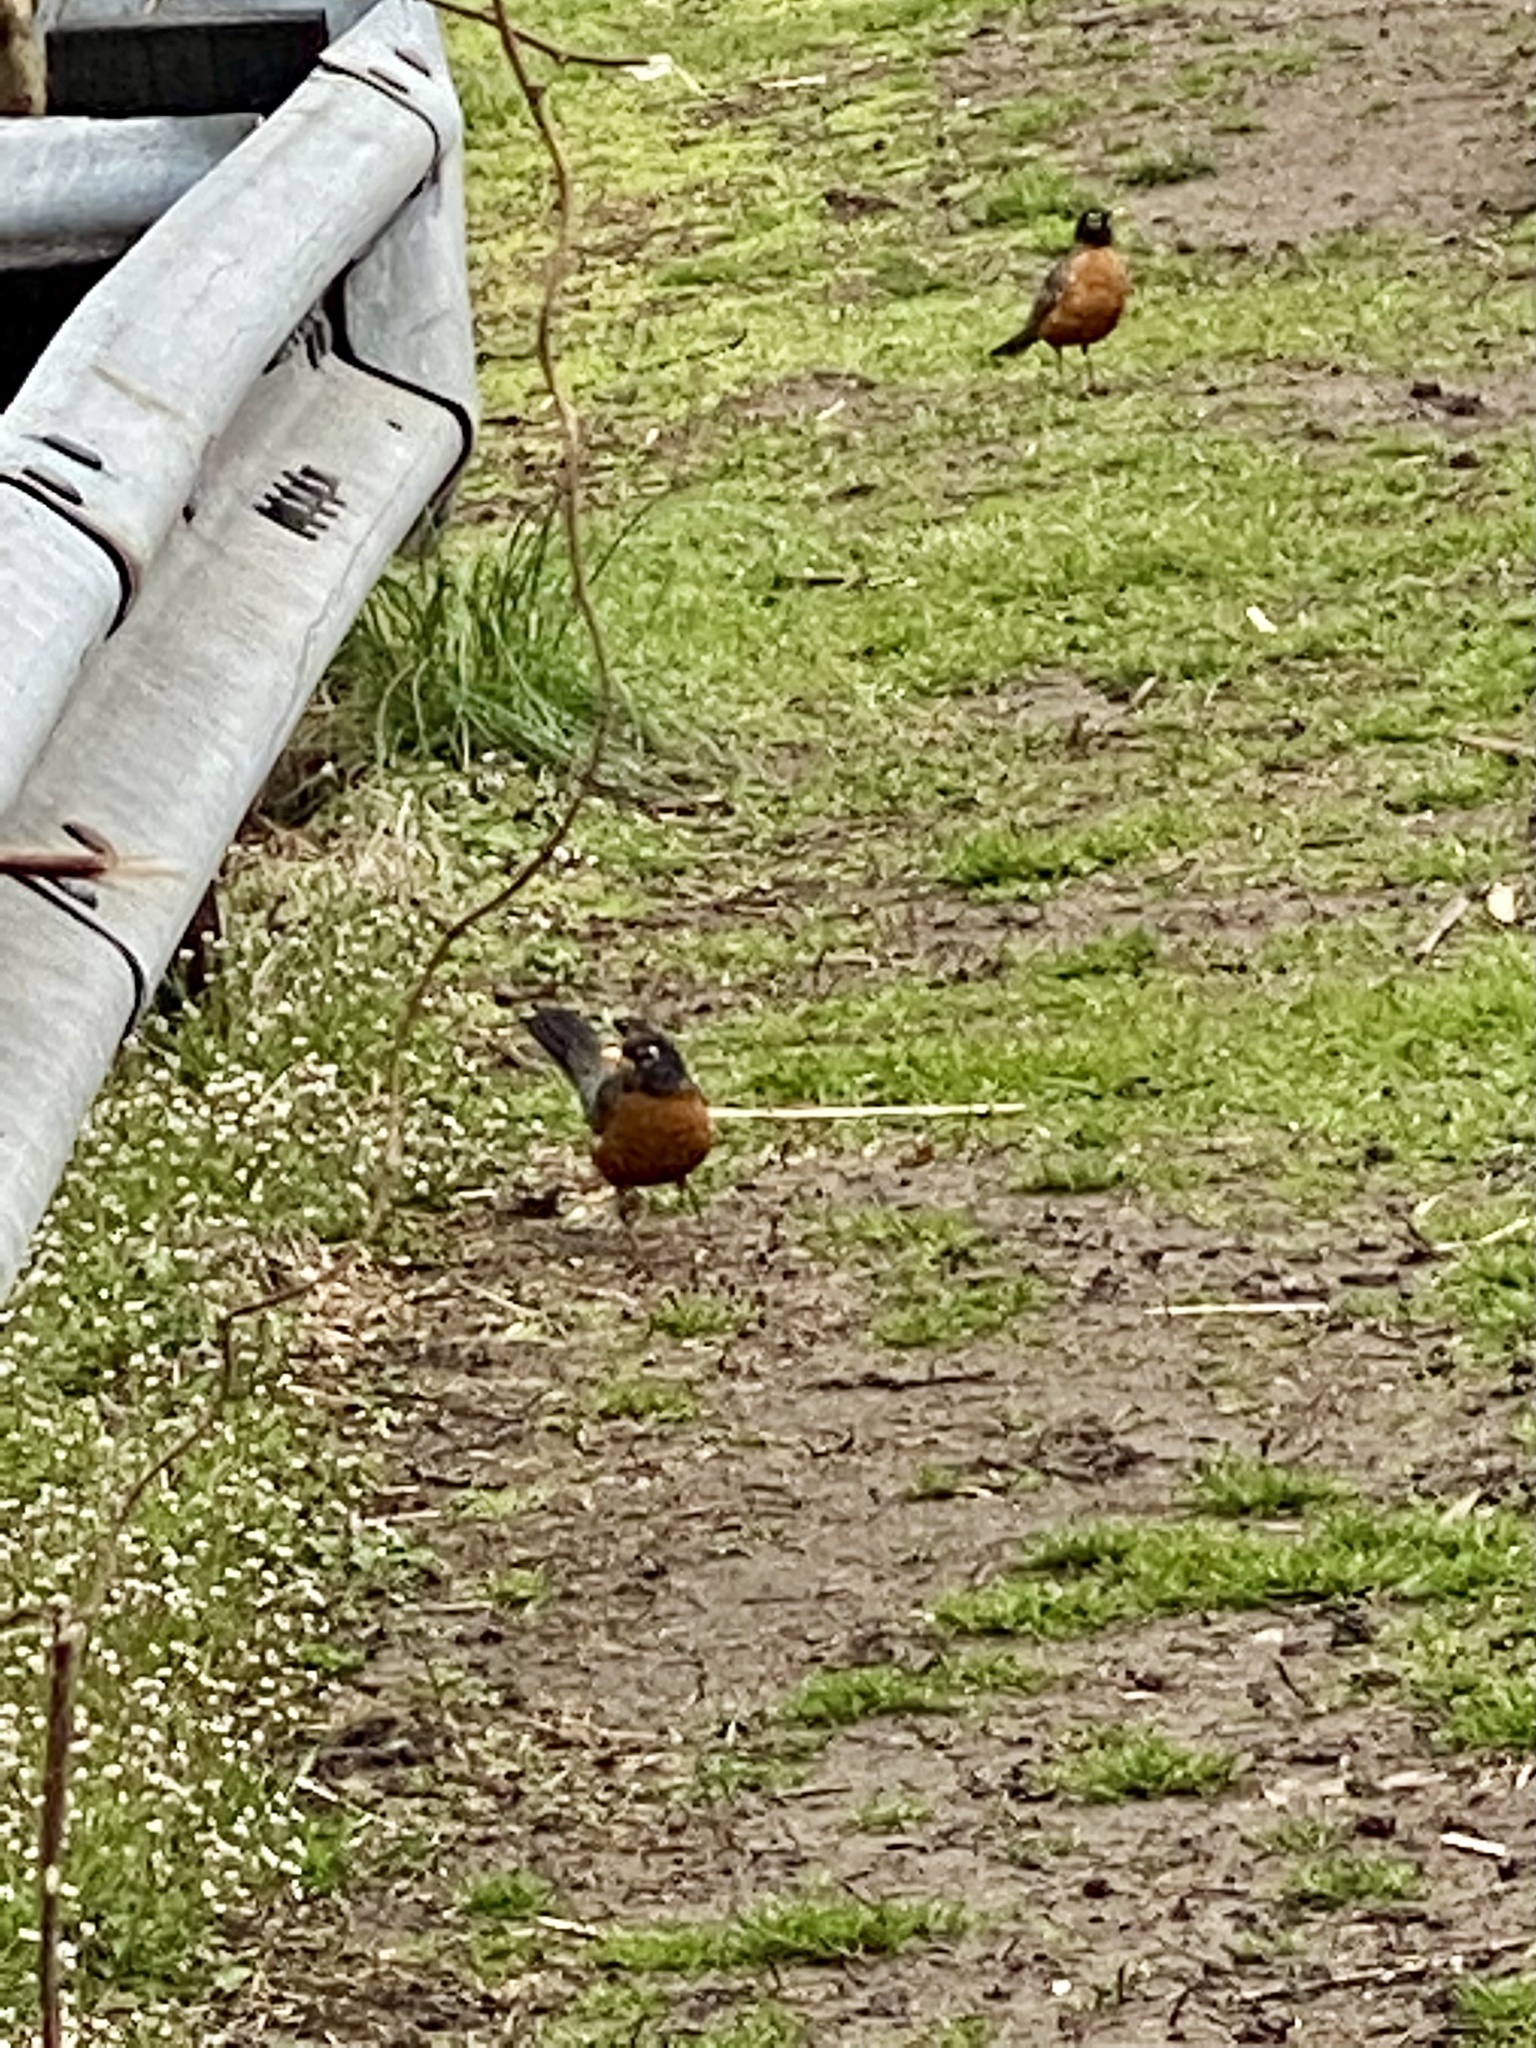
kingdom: Animalia
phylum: Chordata
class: Aves
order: Passeriformes
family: Turdidae
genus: Turdus
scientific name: Turdus migratorius
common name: American robin
